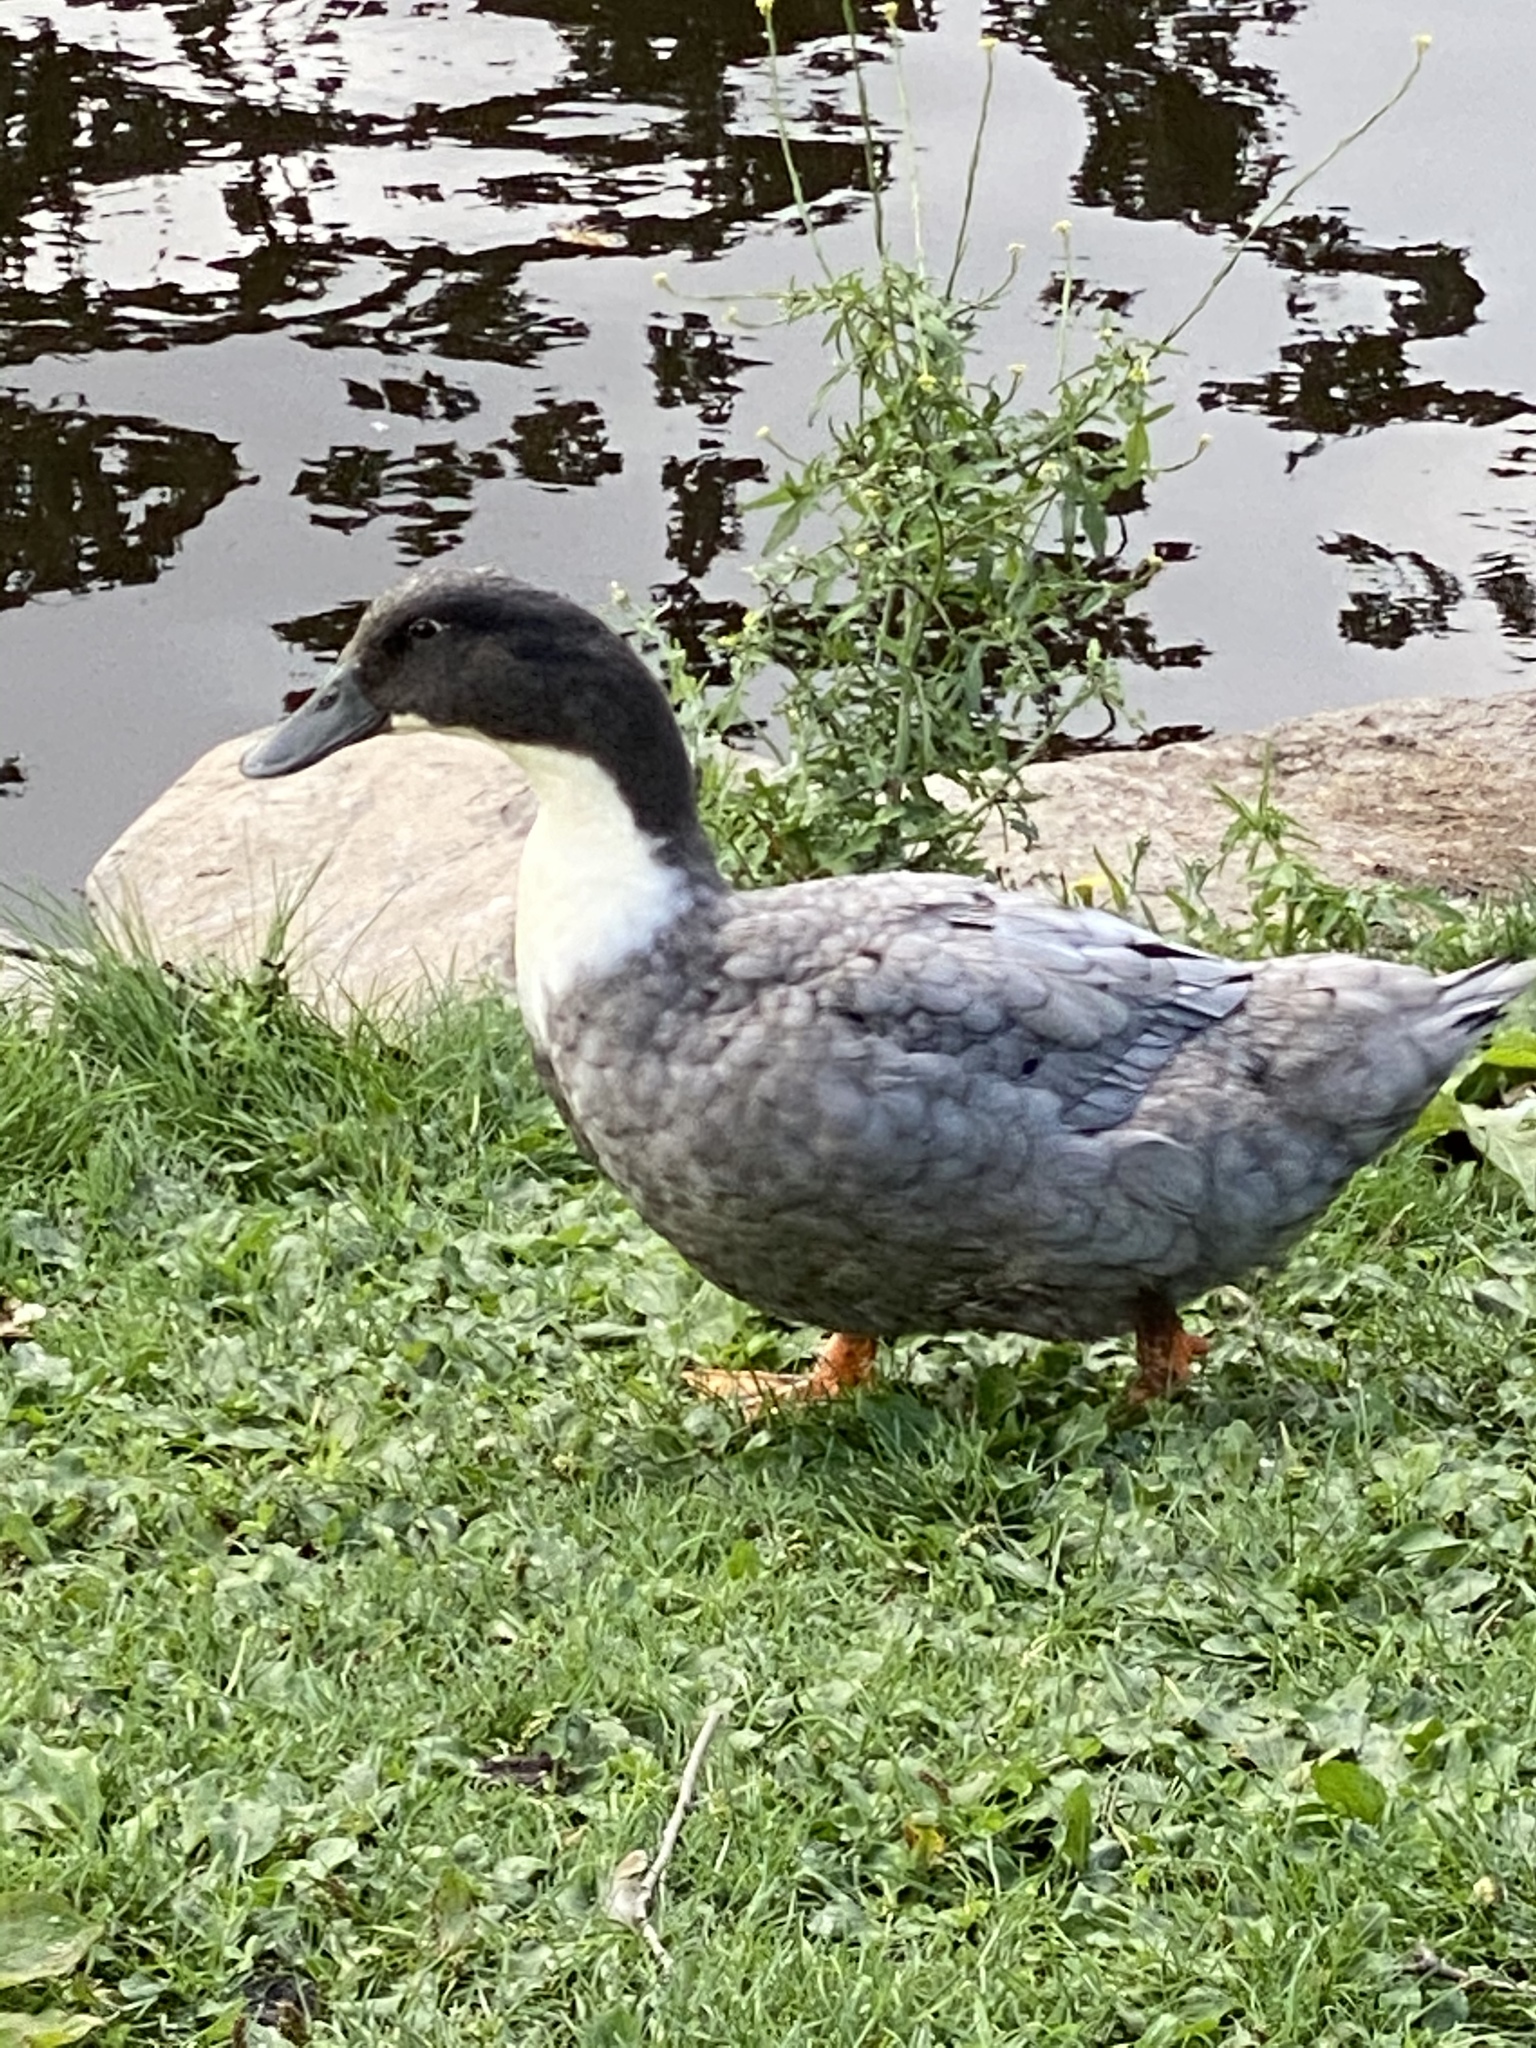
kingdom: Animalia
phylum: Chordata
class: Aves
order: Anseriformes
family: Anatidae
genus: Anas
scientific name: Anas platyrhynchos
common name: Mallard
